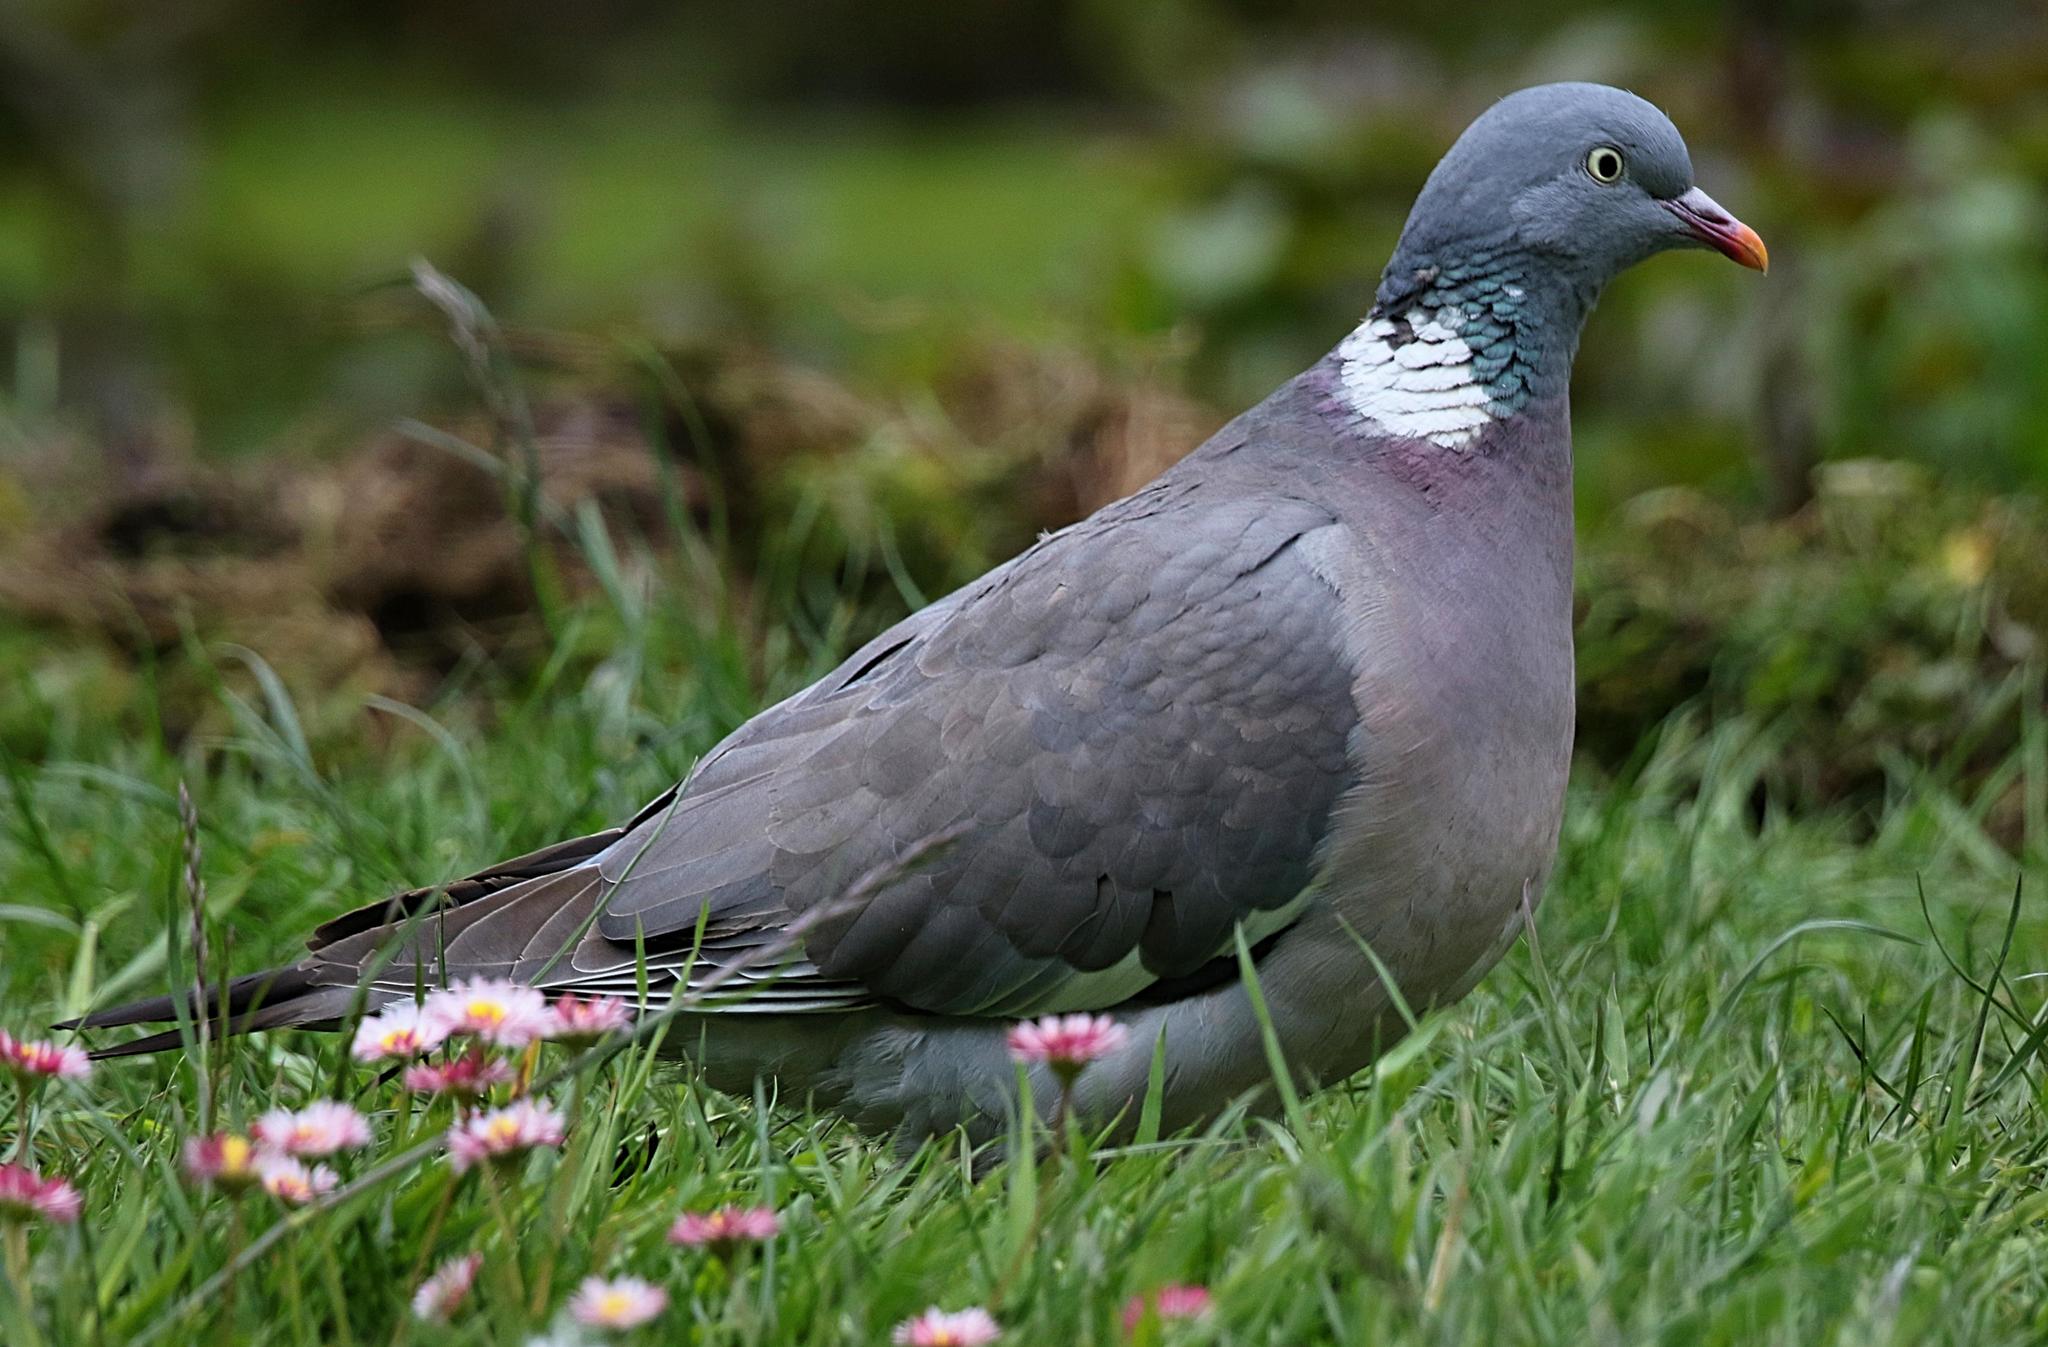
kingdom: Animalia
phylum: Chordata
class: Aves
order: Columbiformes
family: Columbidae
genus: Columba
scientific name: Columba palumbus
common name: Common wood pigeon
